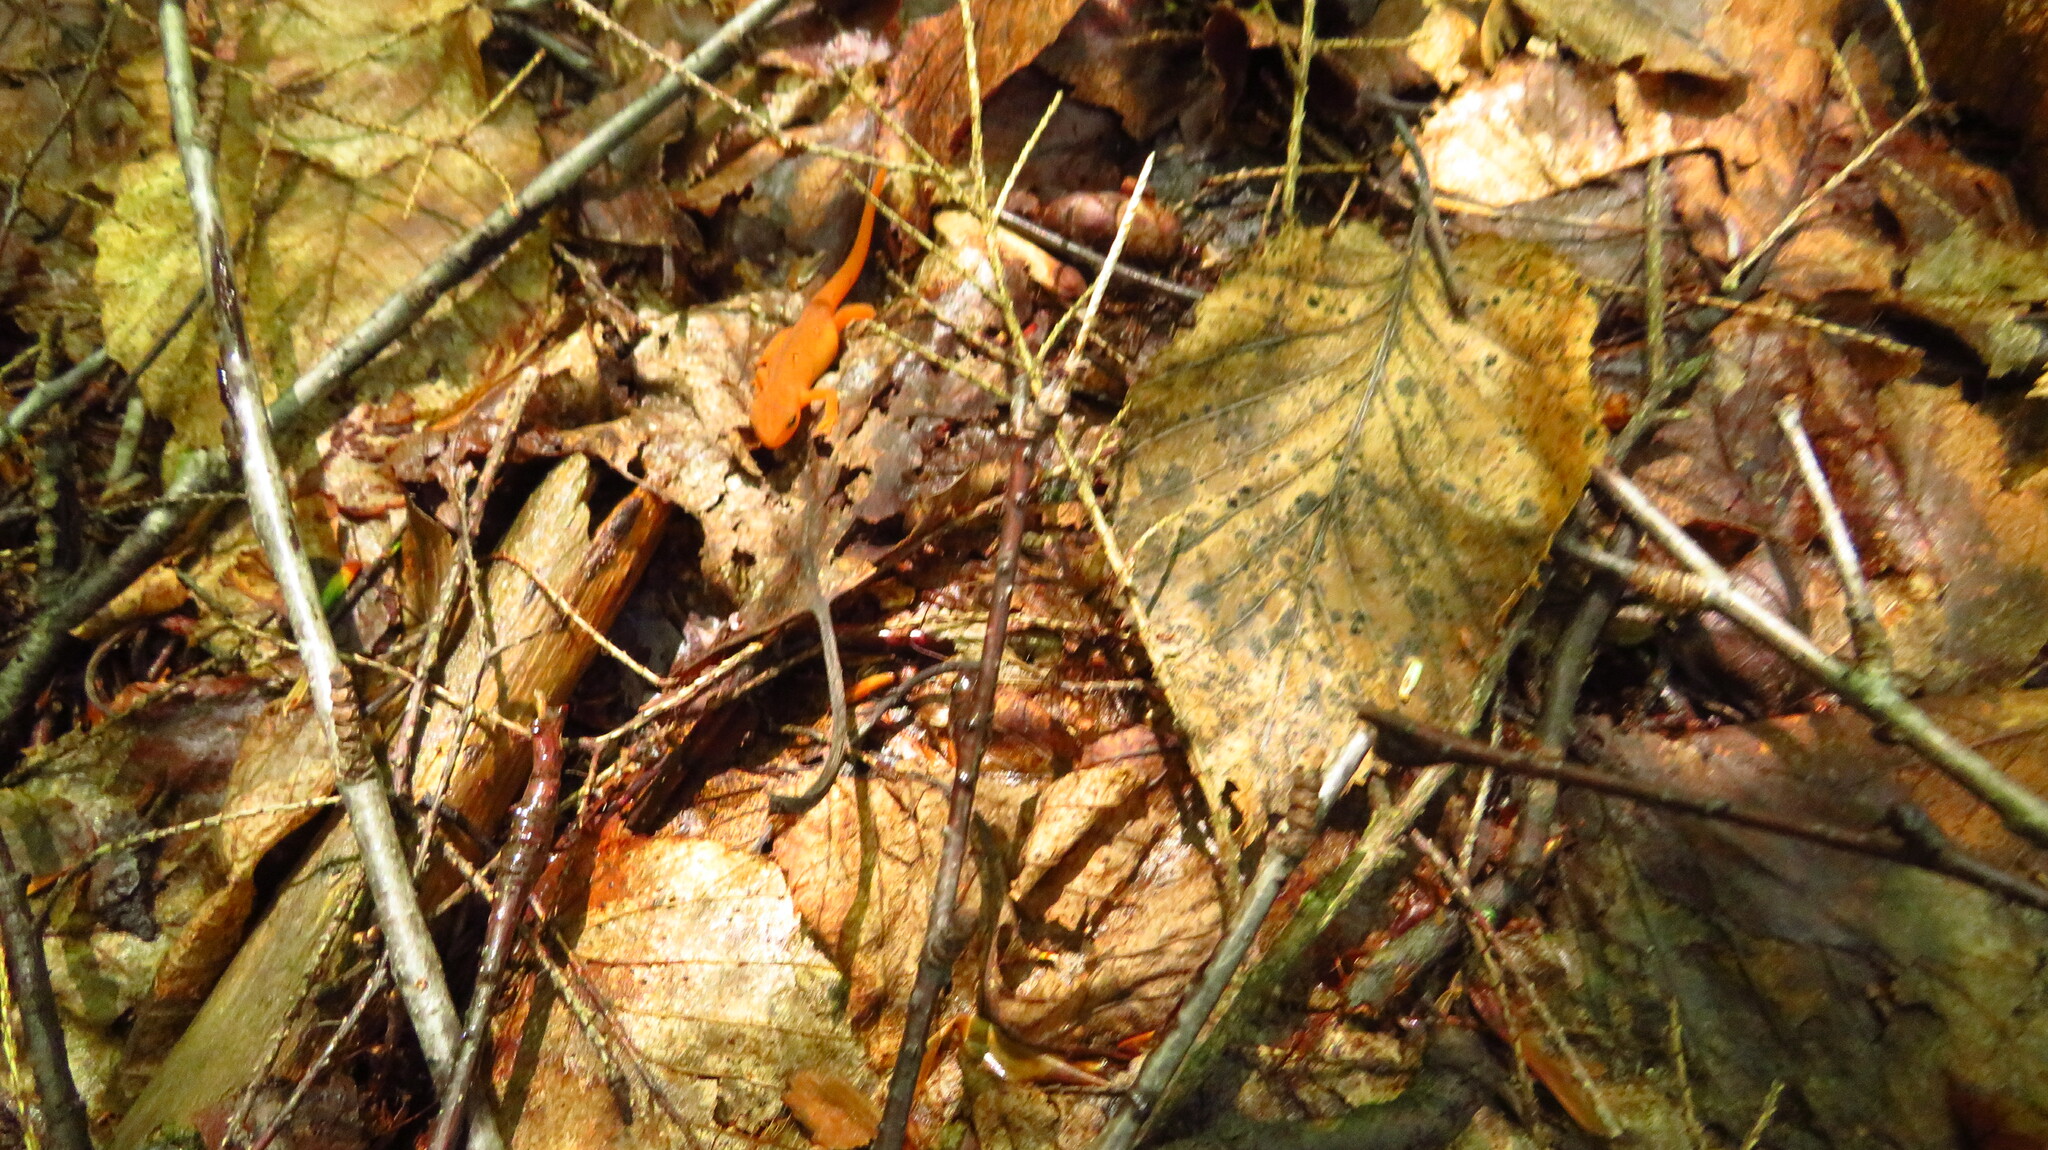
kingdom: Animalia
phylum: Chordata
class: Amphibia
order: Caudata
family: Salamandridae
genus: Notophthalmus
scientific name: Notophthalmus viridescens
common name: Eastern newt
